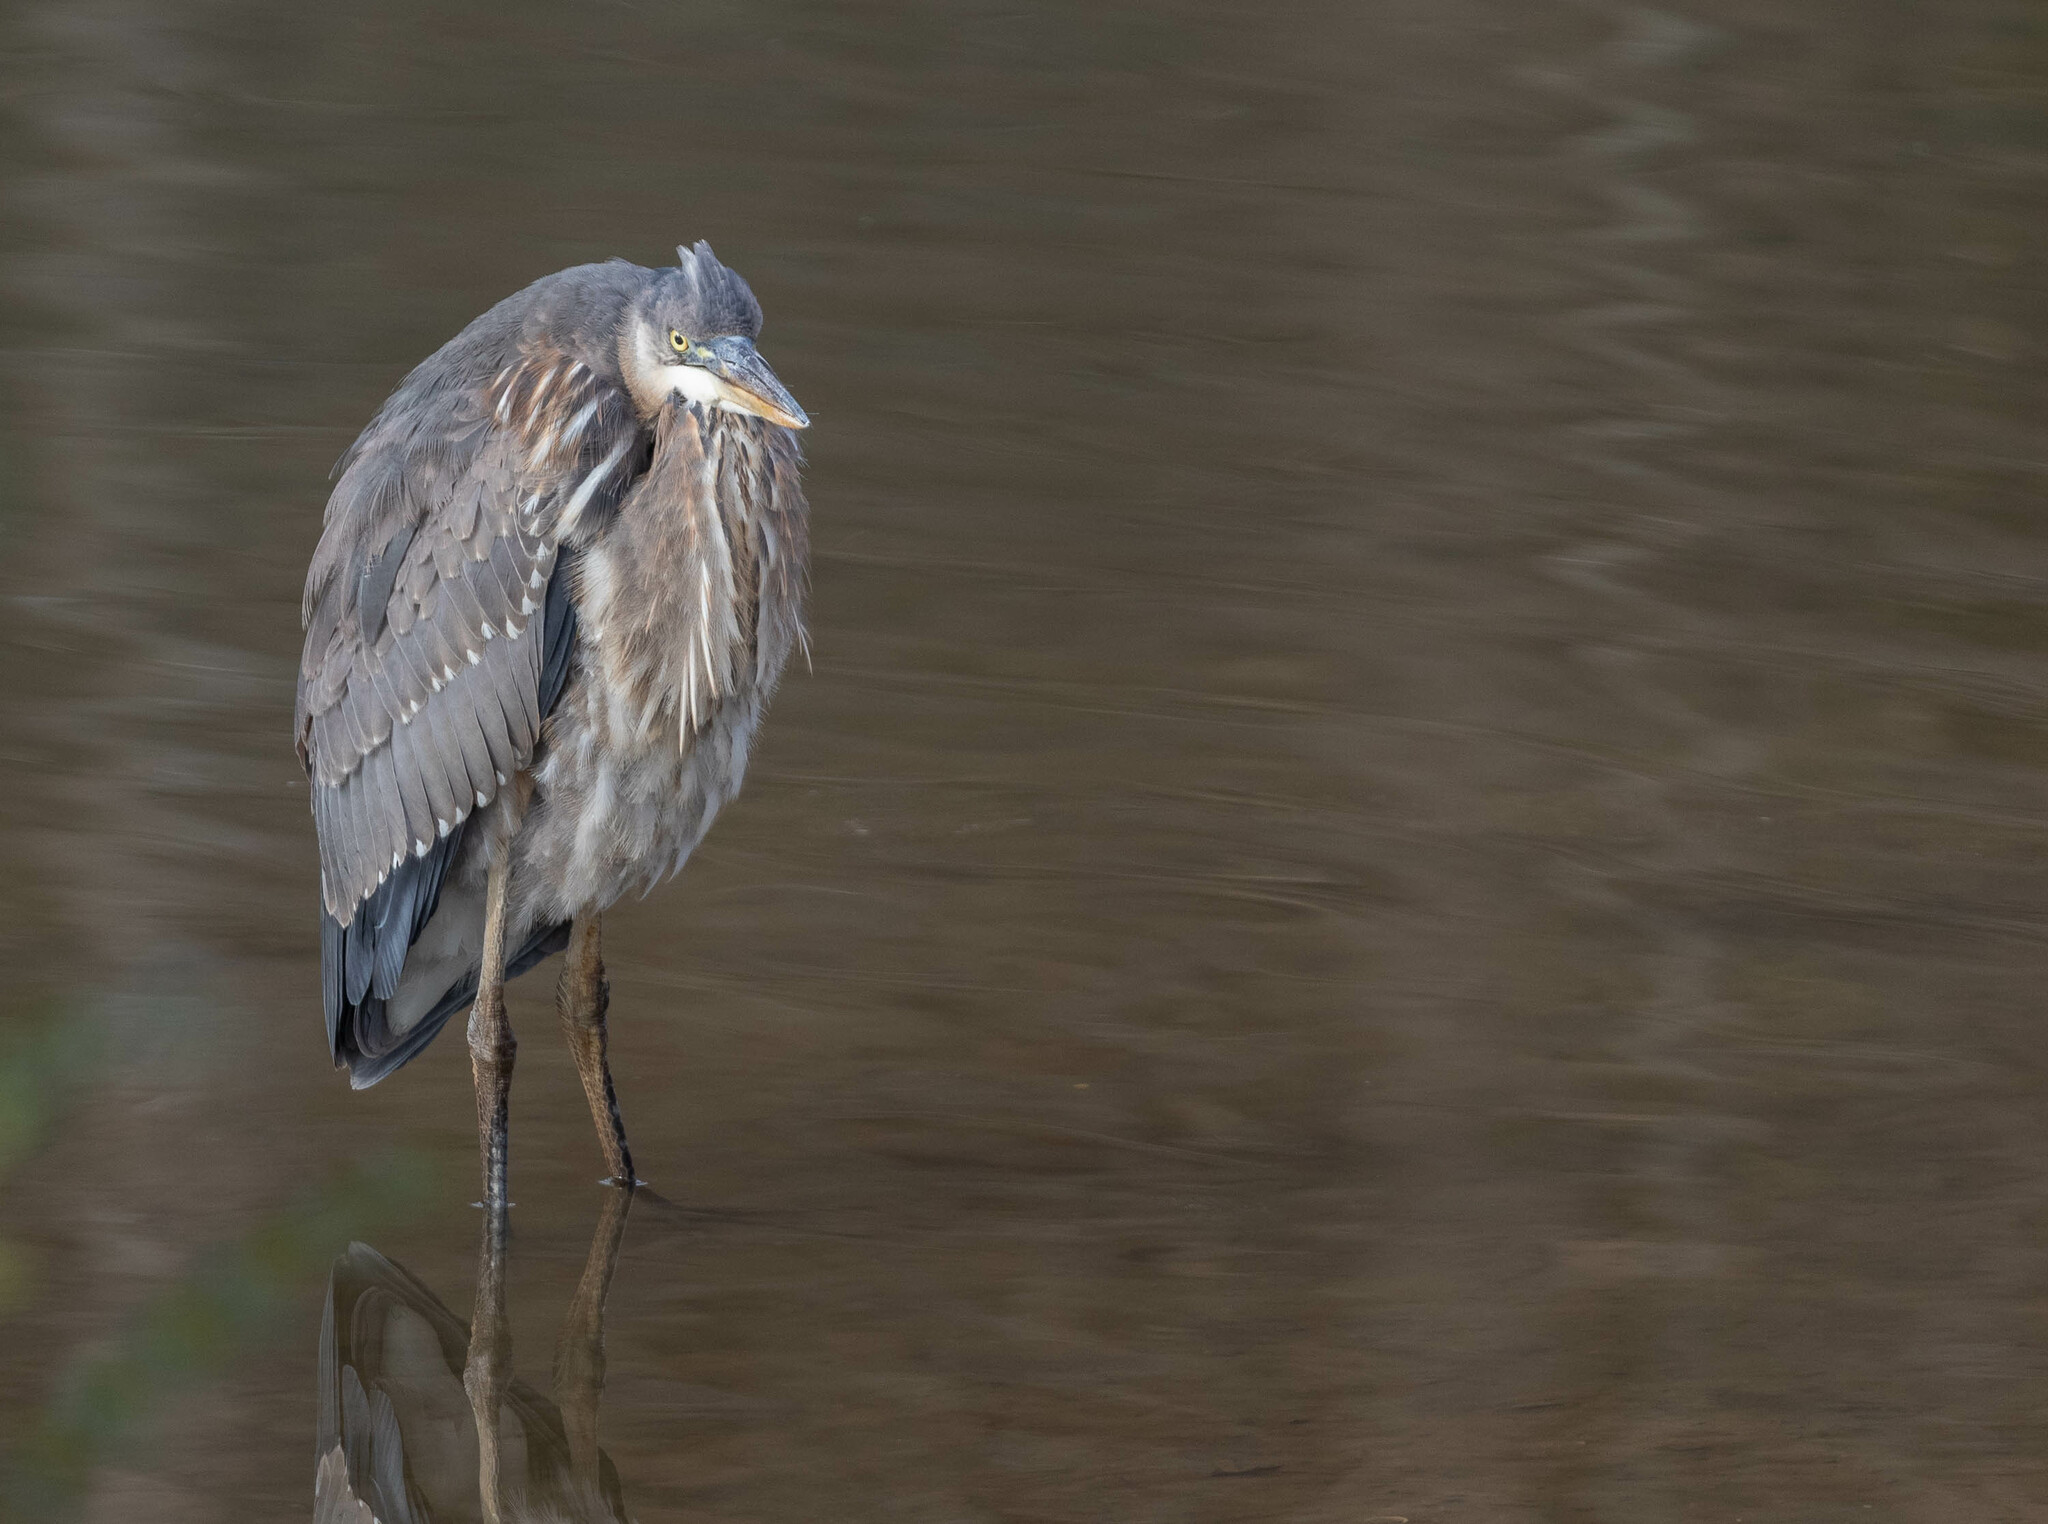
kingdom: Animalia
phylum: Chordata
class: Aves
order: Pelecaniformes
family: Ardeidae
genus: Ardea
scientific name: Ardea herodias
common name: Great blue heron
